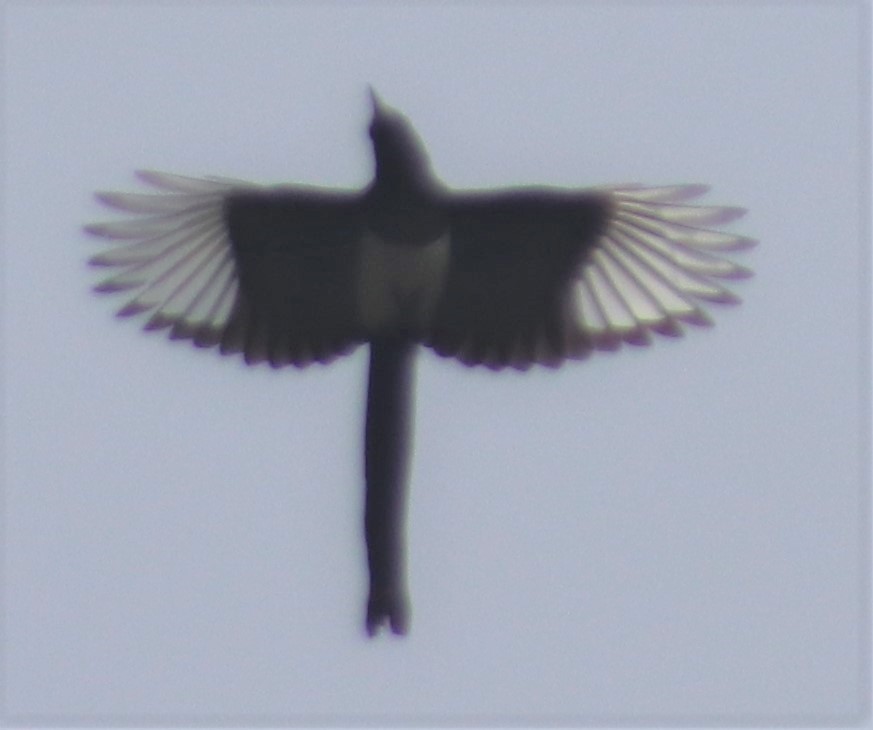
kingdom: Animalia
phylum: Chordata
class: Aves
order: Passeriformes
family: Corvidae
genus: Pica
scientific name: Pica hudsonia
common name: Black-billed magpie
